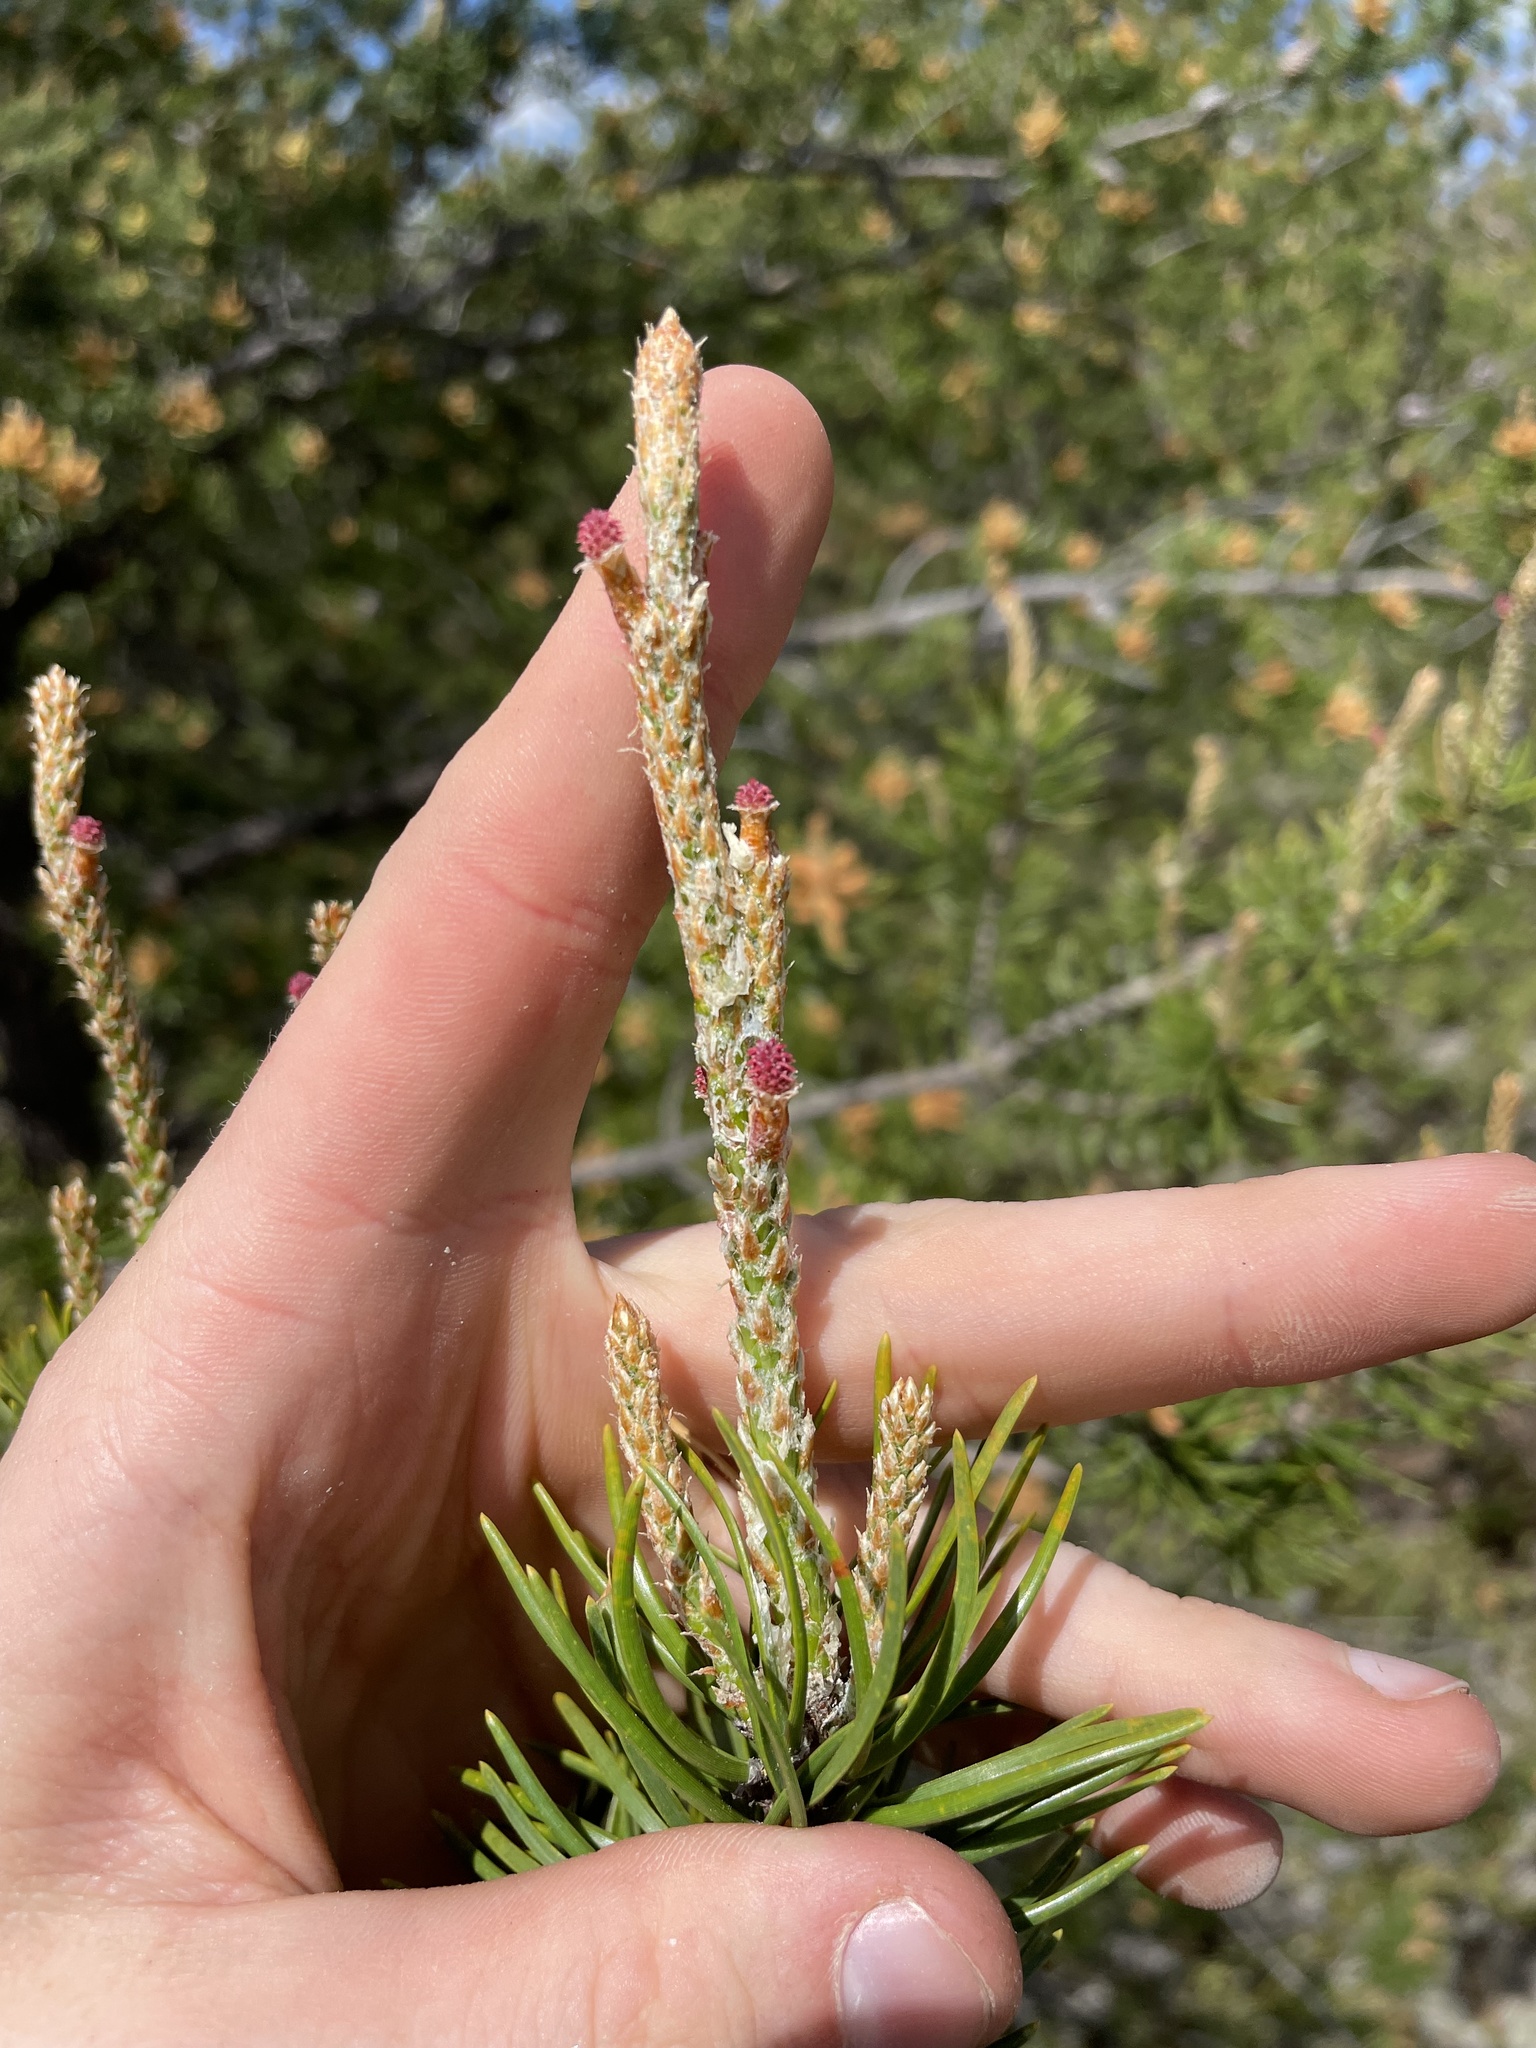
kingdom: Plantae
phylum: Tracheophyta
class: Pinopsida
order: Pinales
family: Pinaceae
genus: Pinus
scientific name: Pinus banksiana
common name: Jack pine
